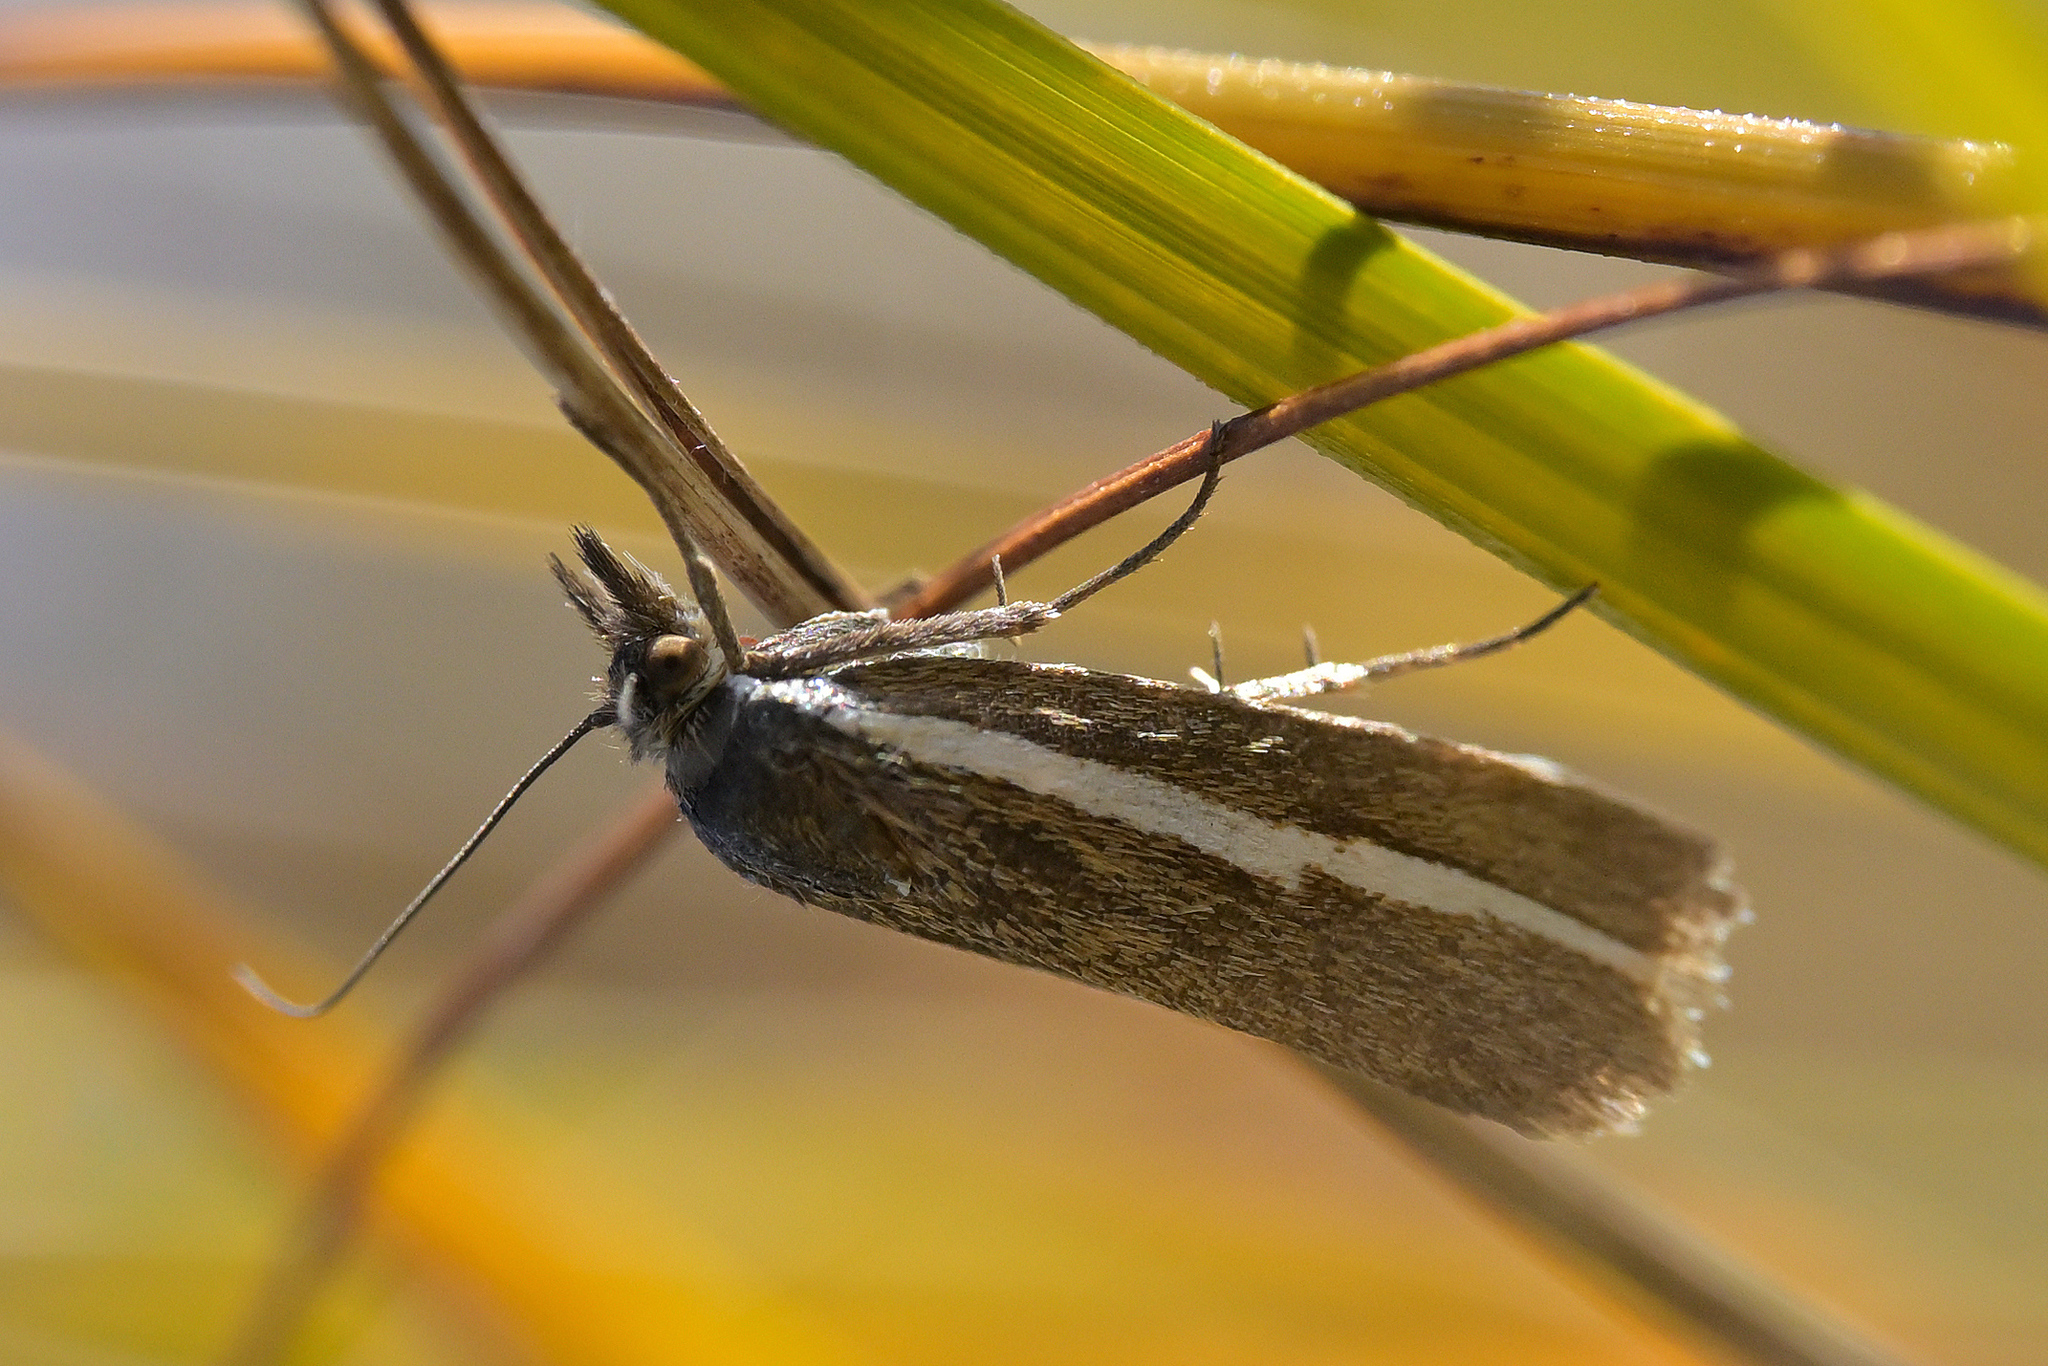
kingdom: Animalia
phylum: Arthropoda
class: Insecta
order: Lepidoptera
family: Crambidae
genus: Orocrambus
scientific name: Orocrambus catacaustus
